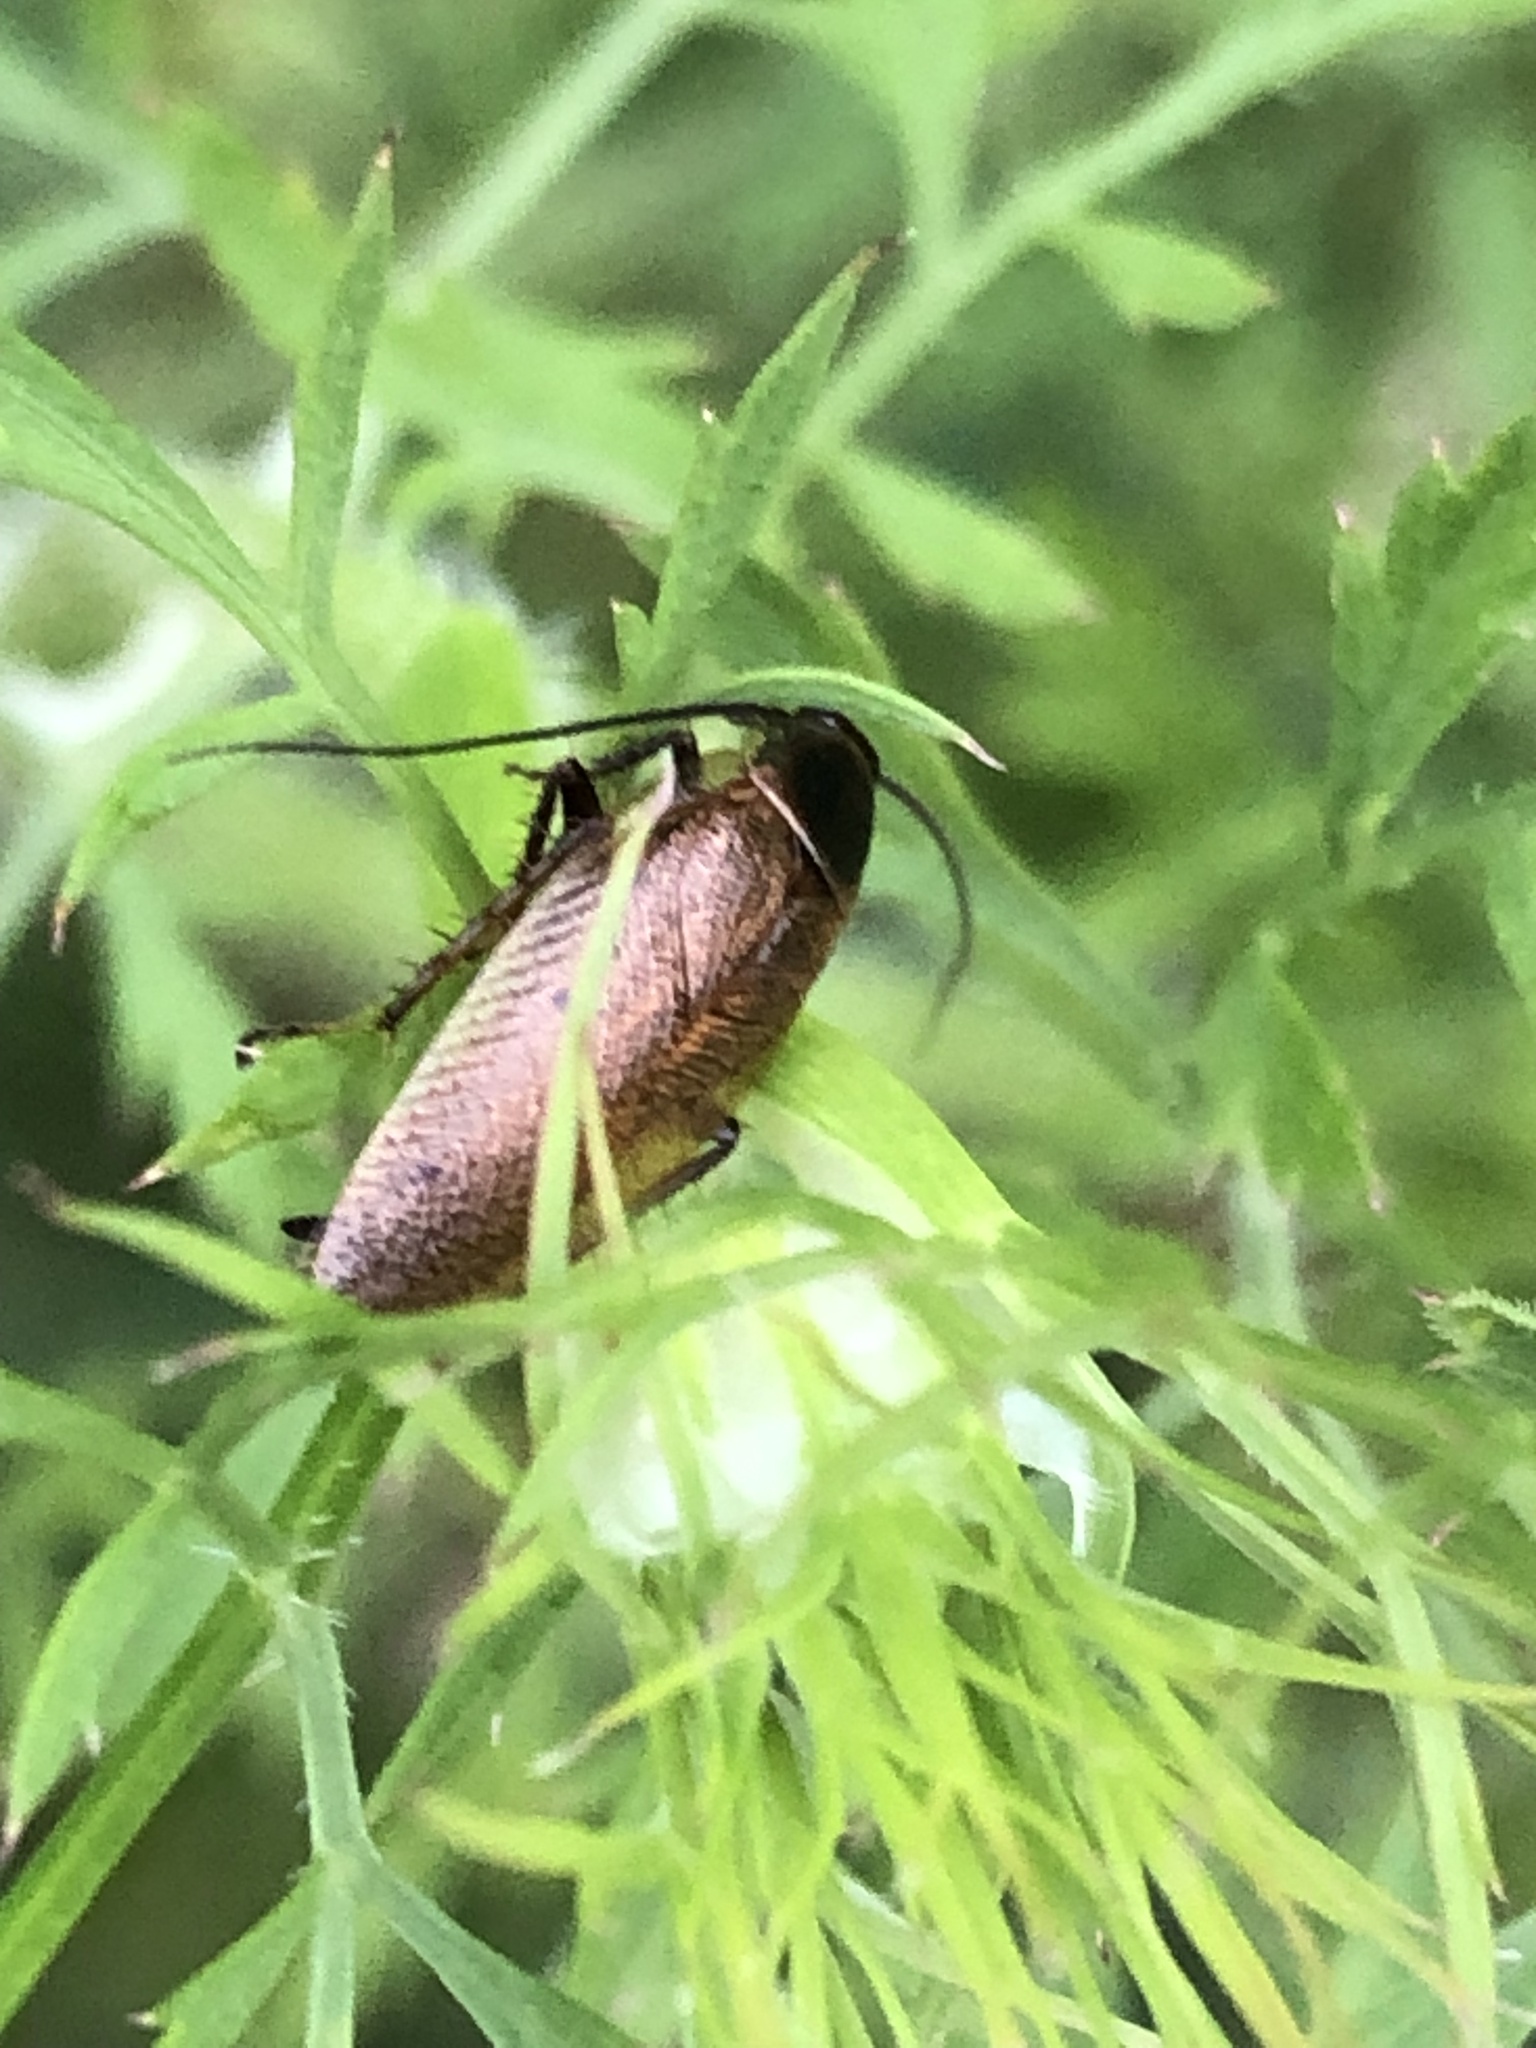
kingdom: Animalia
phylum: Arthropoda
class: Insecta
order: Blattodea
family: Ectobiidae
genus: Ectobius
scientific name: Ectobius lapponicus
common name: Dusky cockroach
